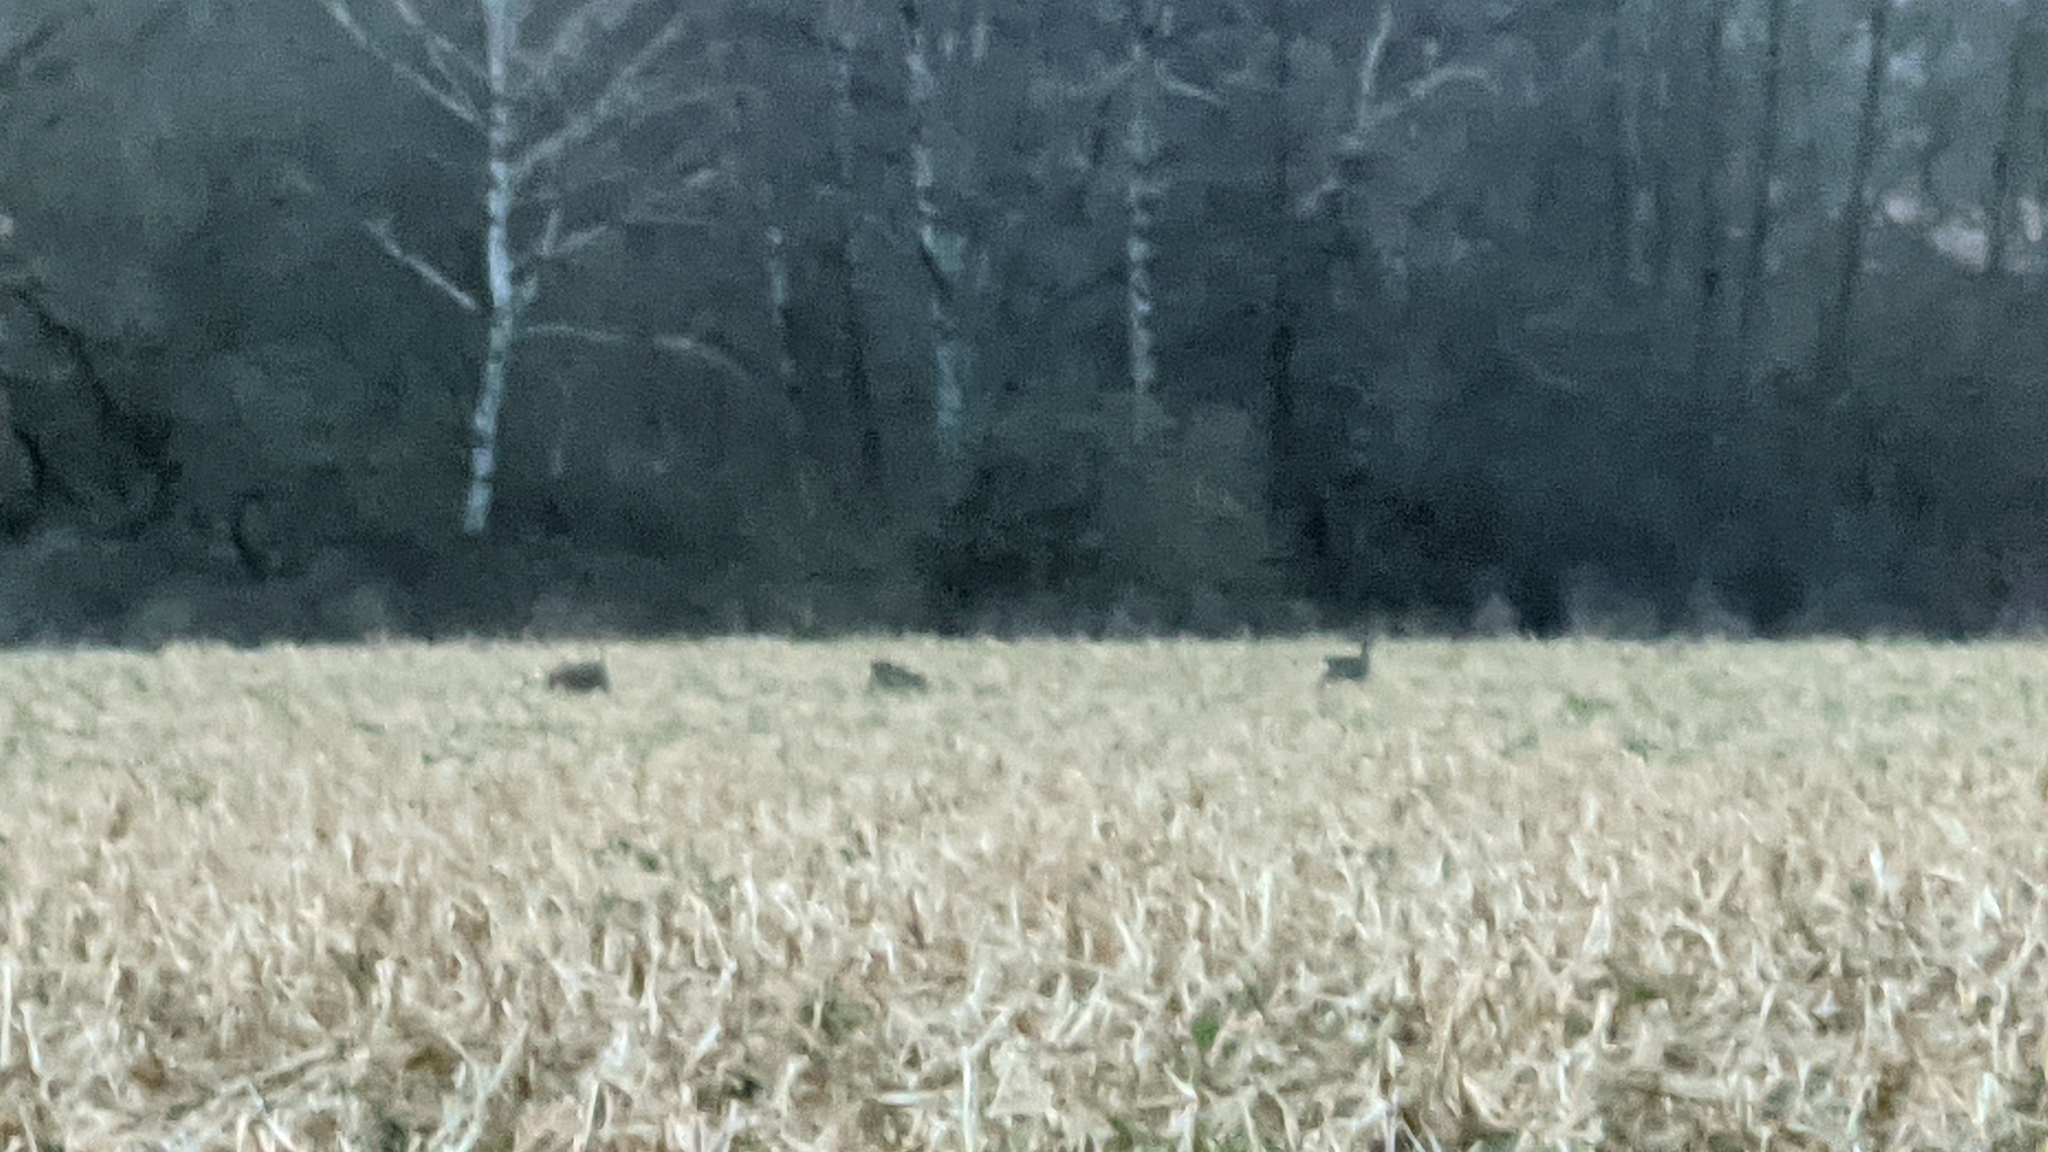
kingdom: Animalia
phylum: Chordata
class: Mammalia
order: Artiodactyla
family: Cervidae
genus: Capreolus
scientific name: Capreolus capreolus
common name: Western roe deer
